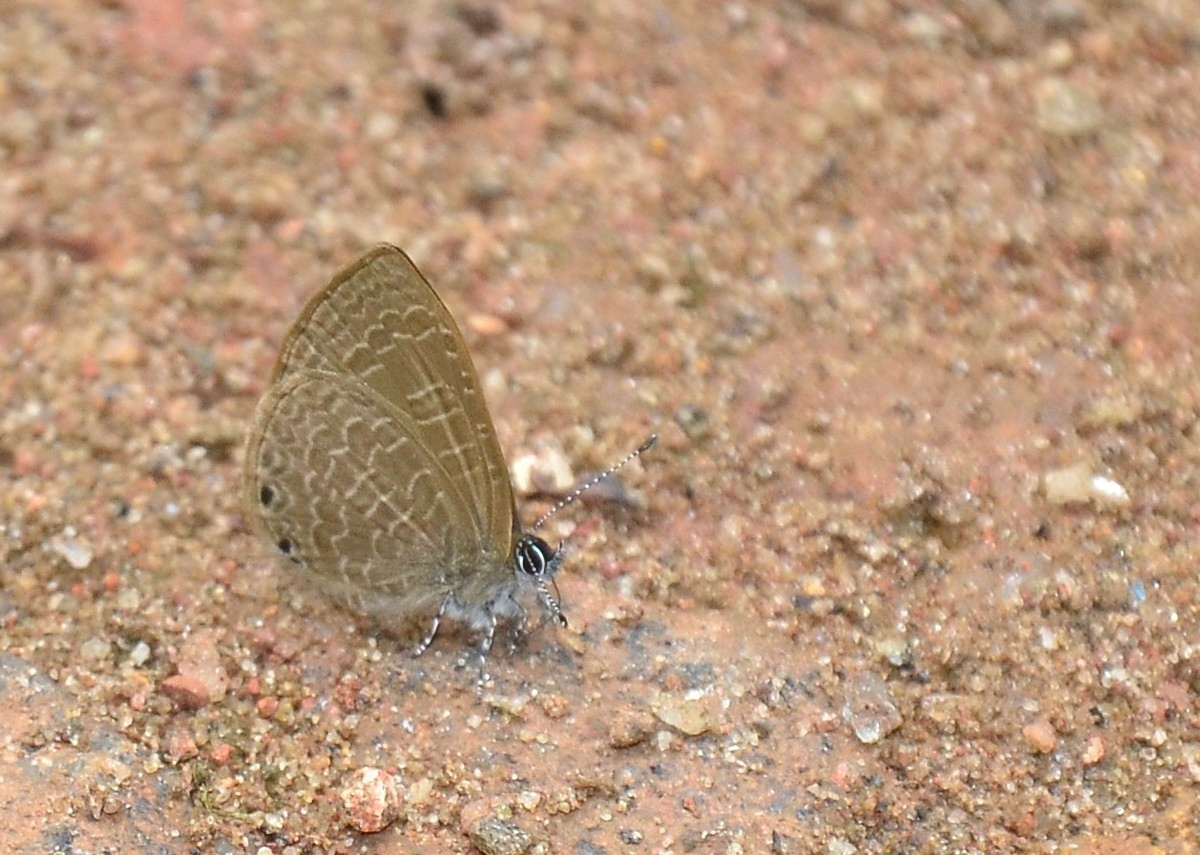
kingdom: Animalia
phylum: Arthropoda
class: Insecta
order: Lepidoptera
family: Lycaenidae
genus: Petrelaea
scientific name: Petrelaea dana
